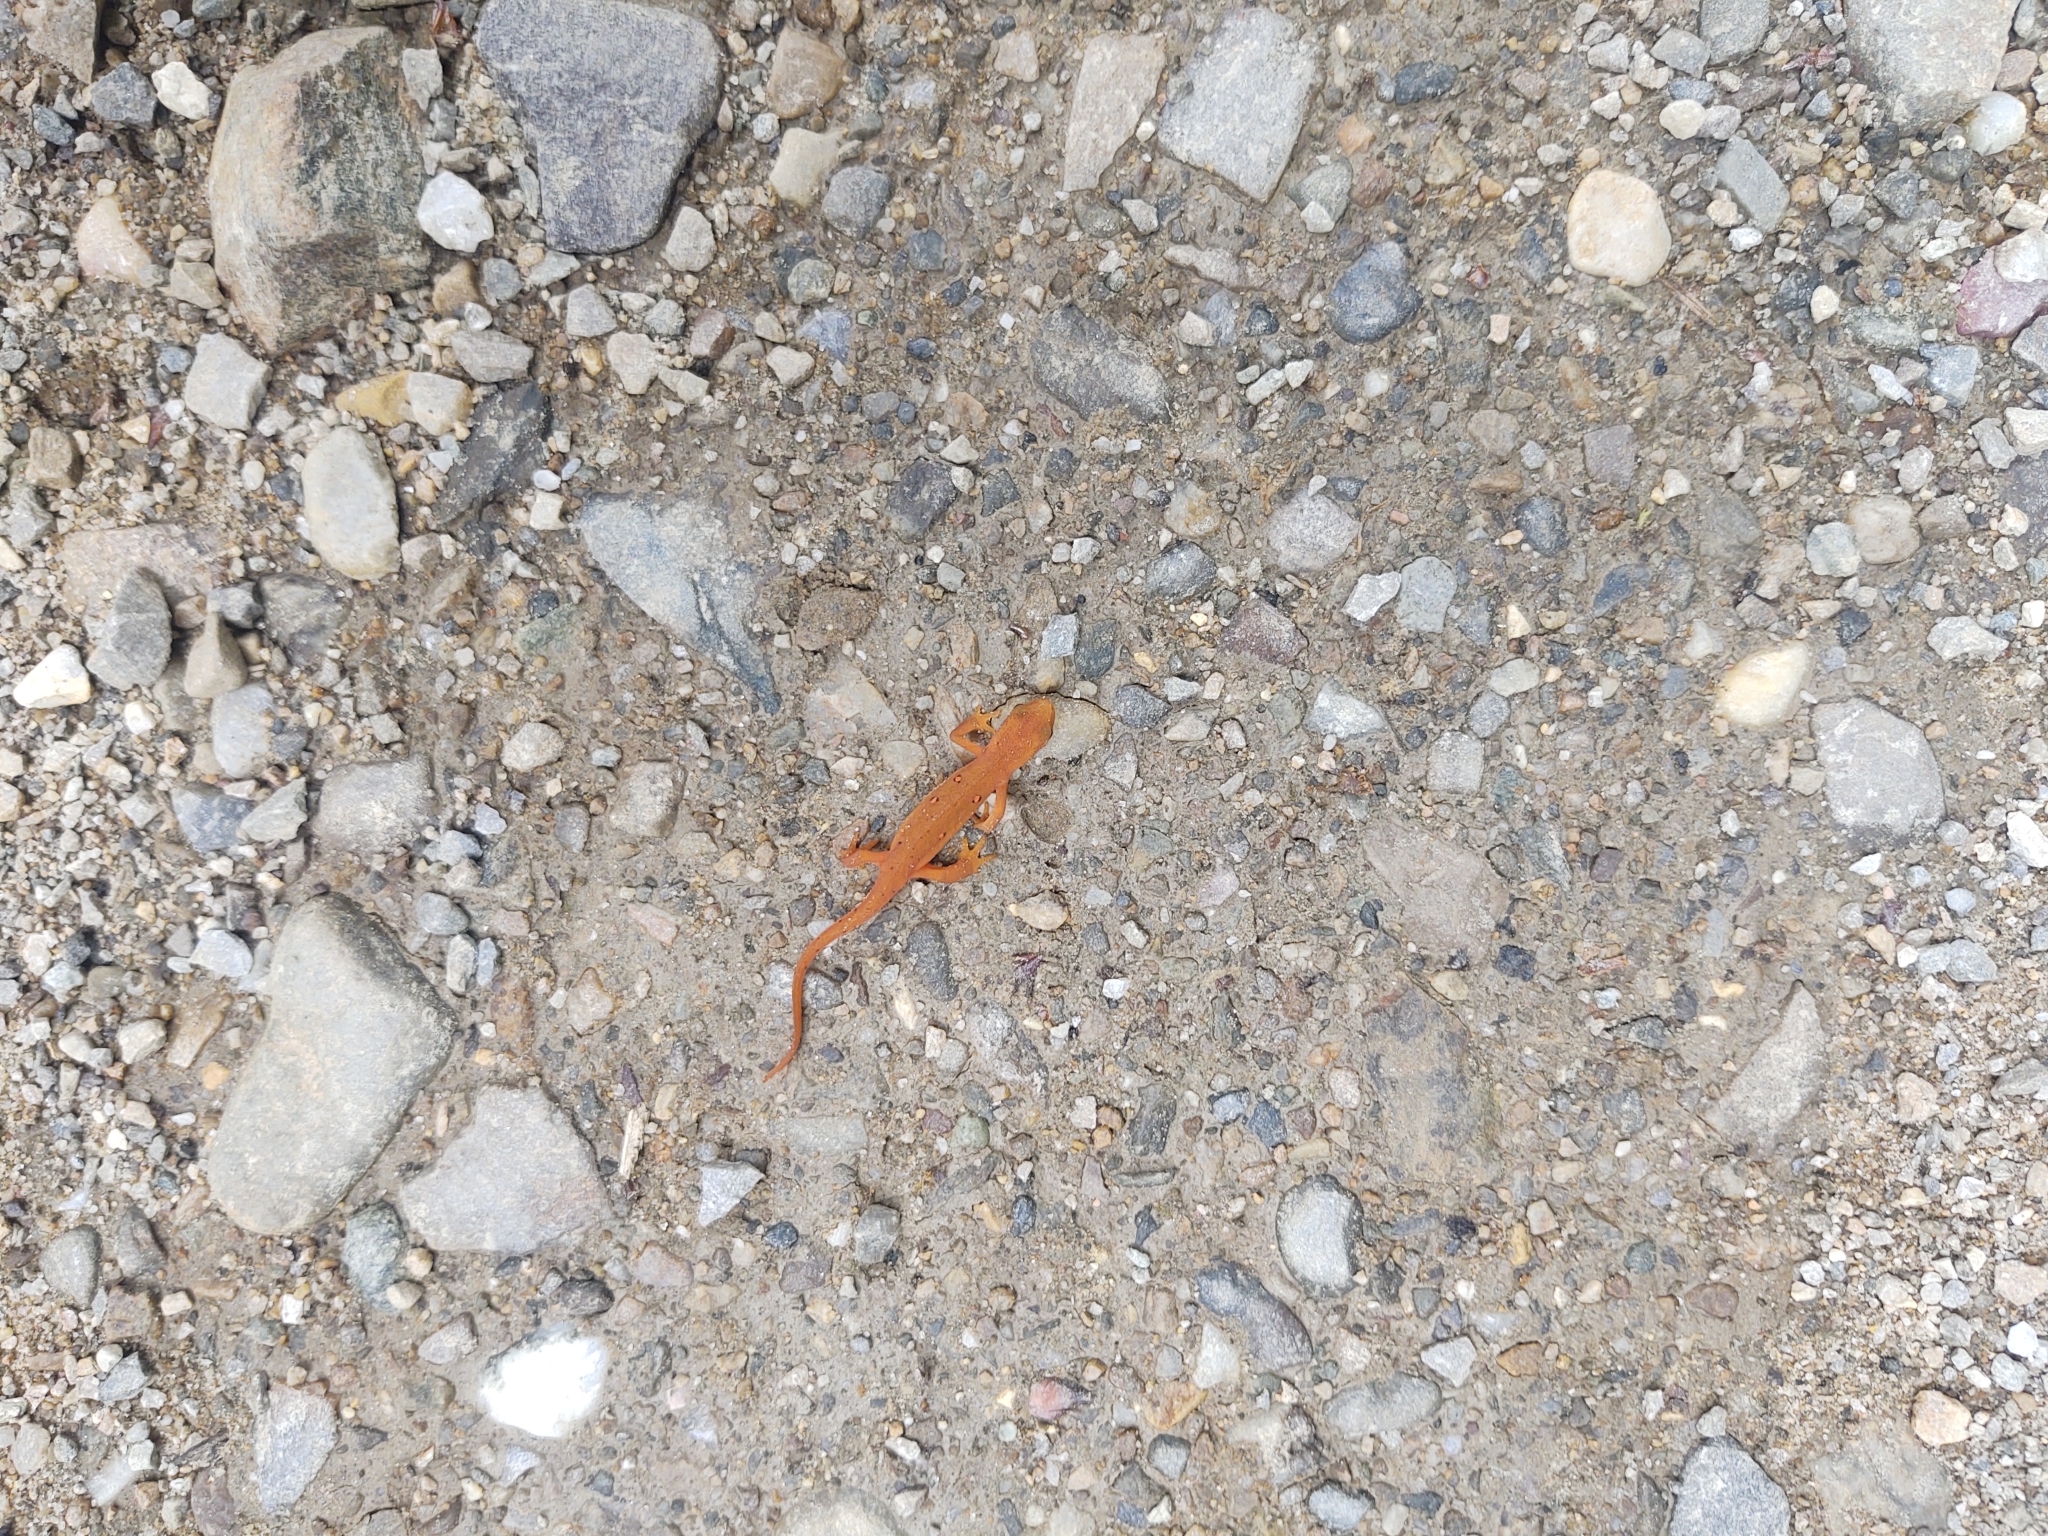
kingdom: Animalia
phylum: Chordata
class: Amphibia
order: Caudata
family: Salamandridae
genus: Notophthalmus
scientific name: Notophthalmus viridescens
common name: Eastern newt
